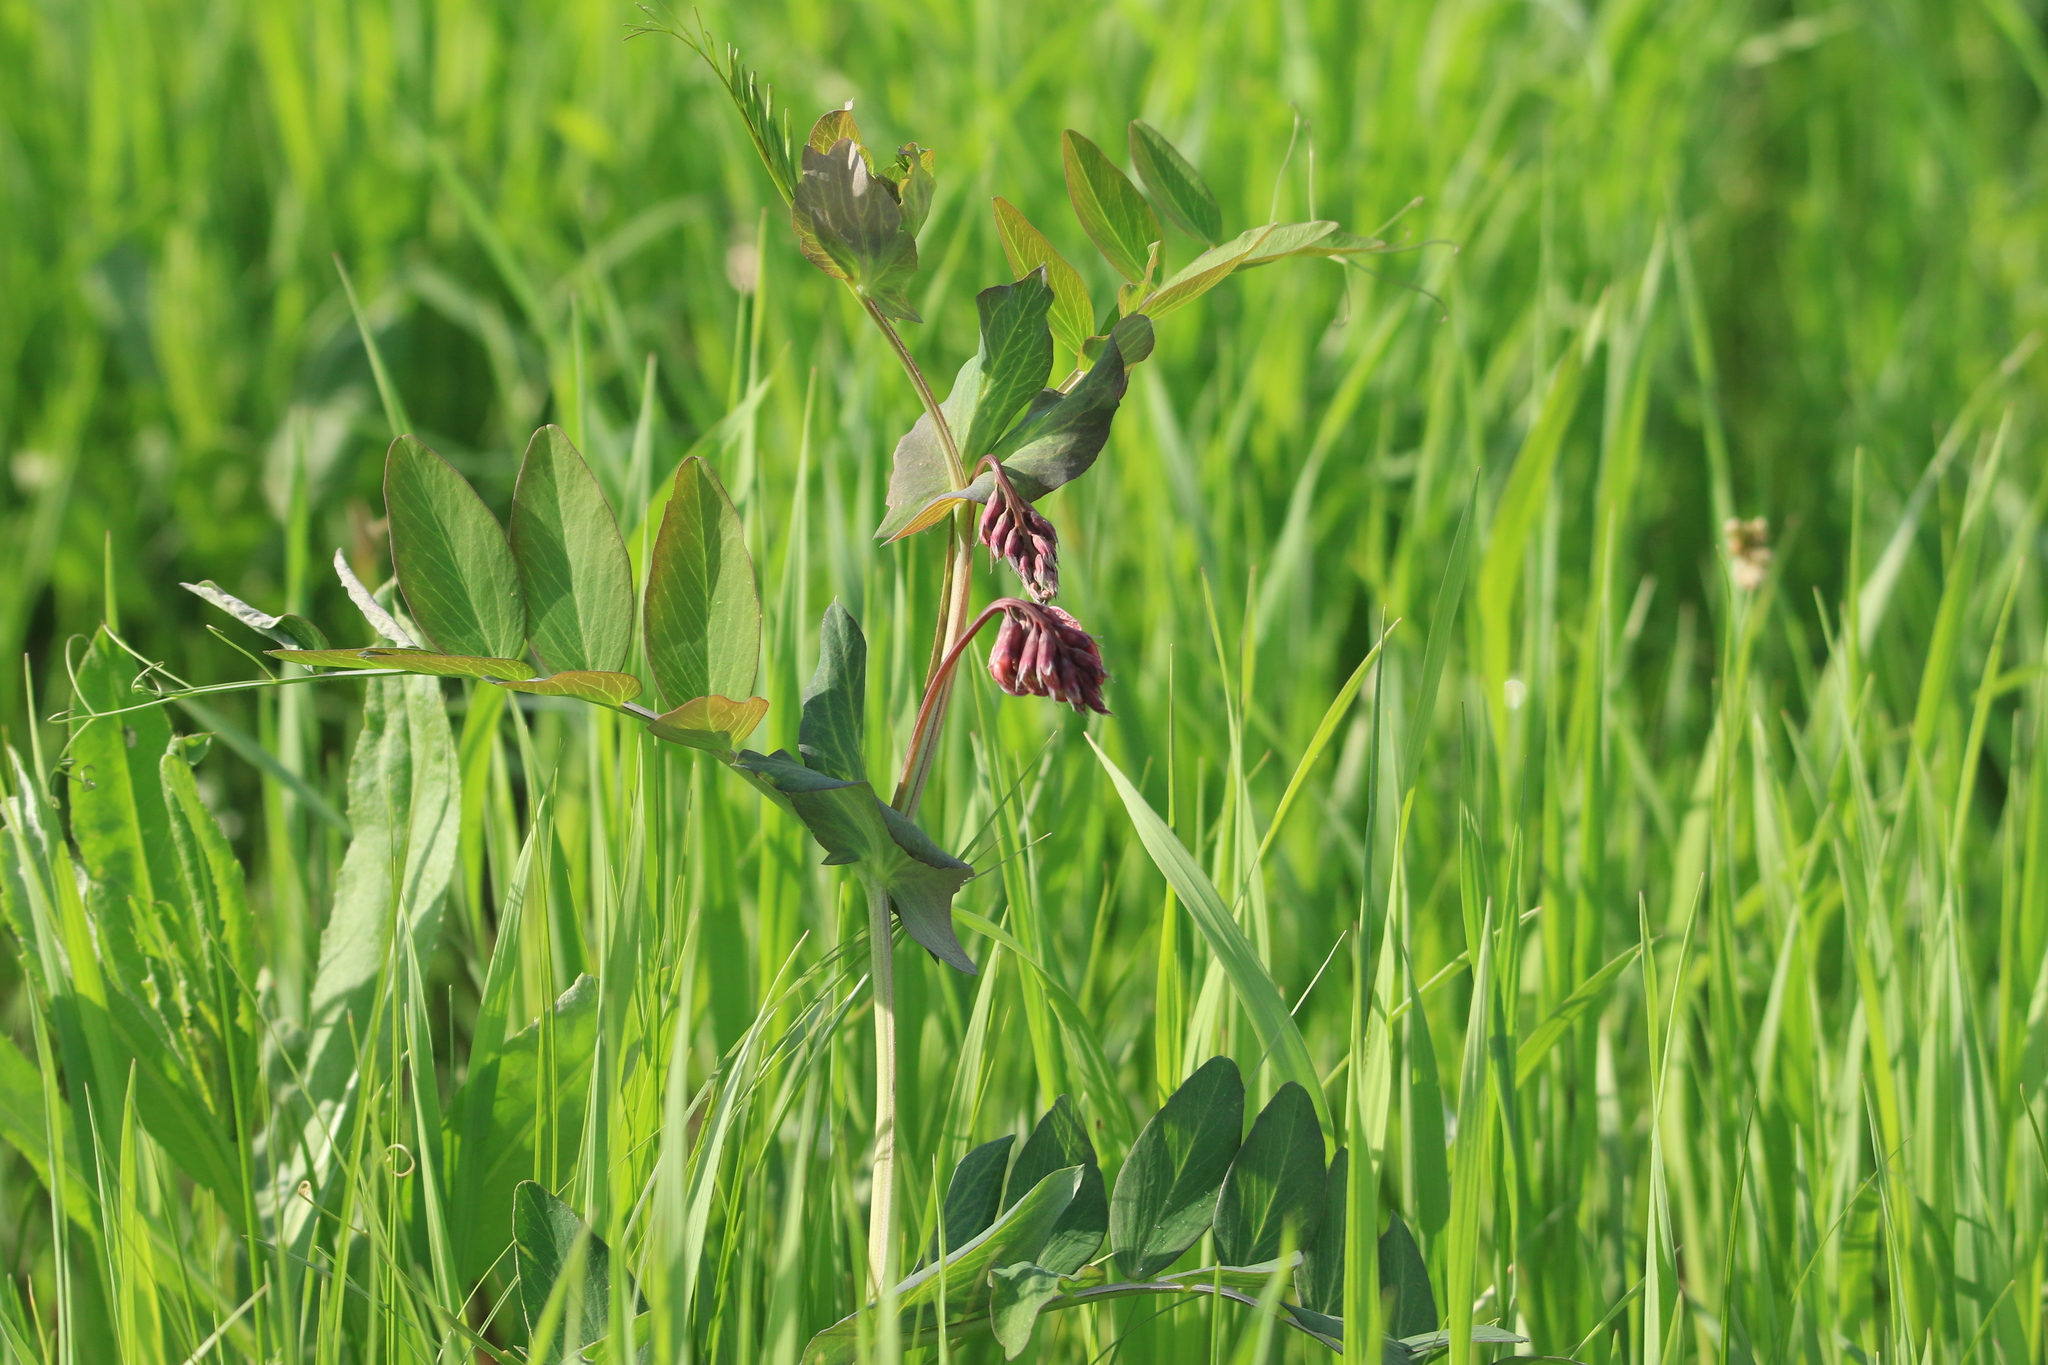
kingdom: Plantae
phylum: Tracheophyta
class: Magnoliopsida
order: Fabales
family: Fabaceae
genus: Lathyrus
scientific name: Lathyrus pisiformis
